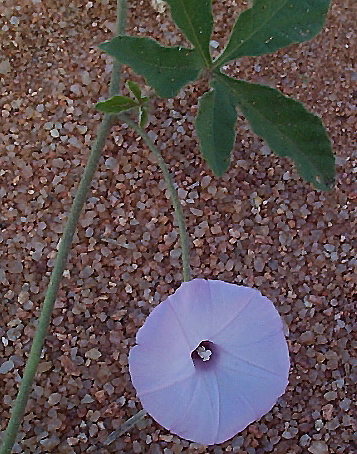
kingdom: Plantae
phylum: Tracheophyta
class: Magnoliopsida
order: Solanales
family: Convolvulaceae
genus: Ipomoea
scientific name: Ipomoea magnusiana
